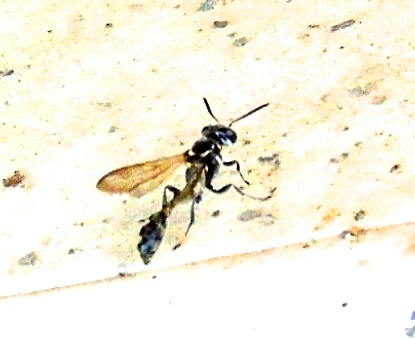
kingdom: Animalia
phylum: Arthropoda
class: Insecta
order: Hymenoptera
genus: Trypargilum
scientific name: Trypargilum
